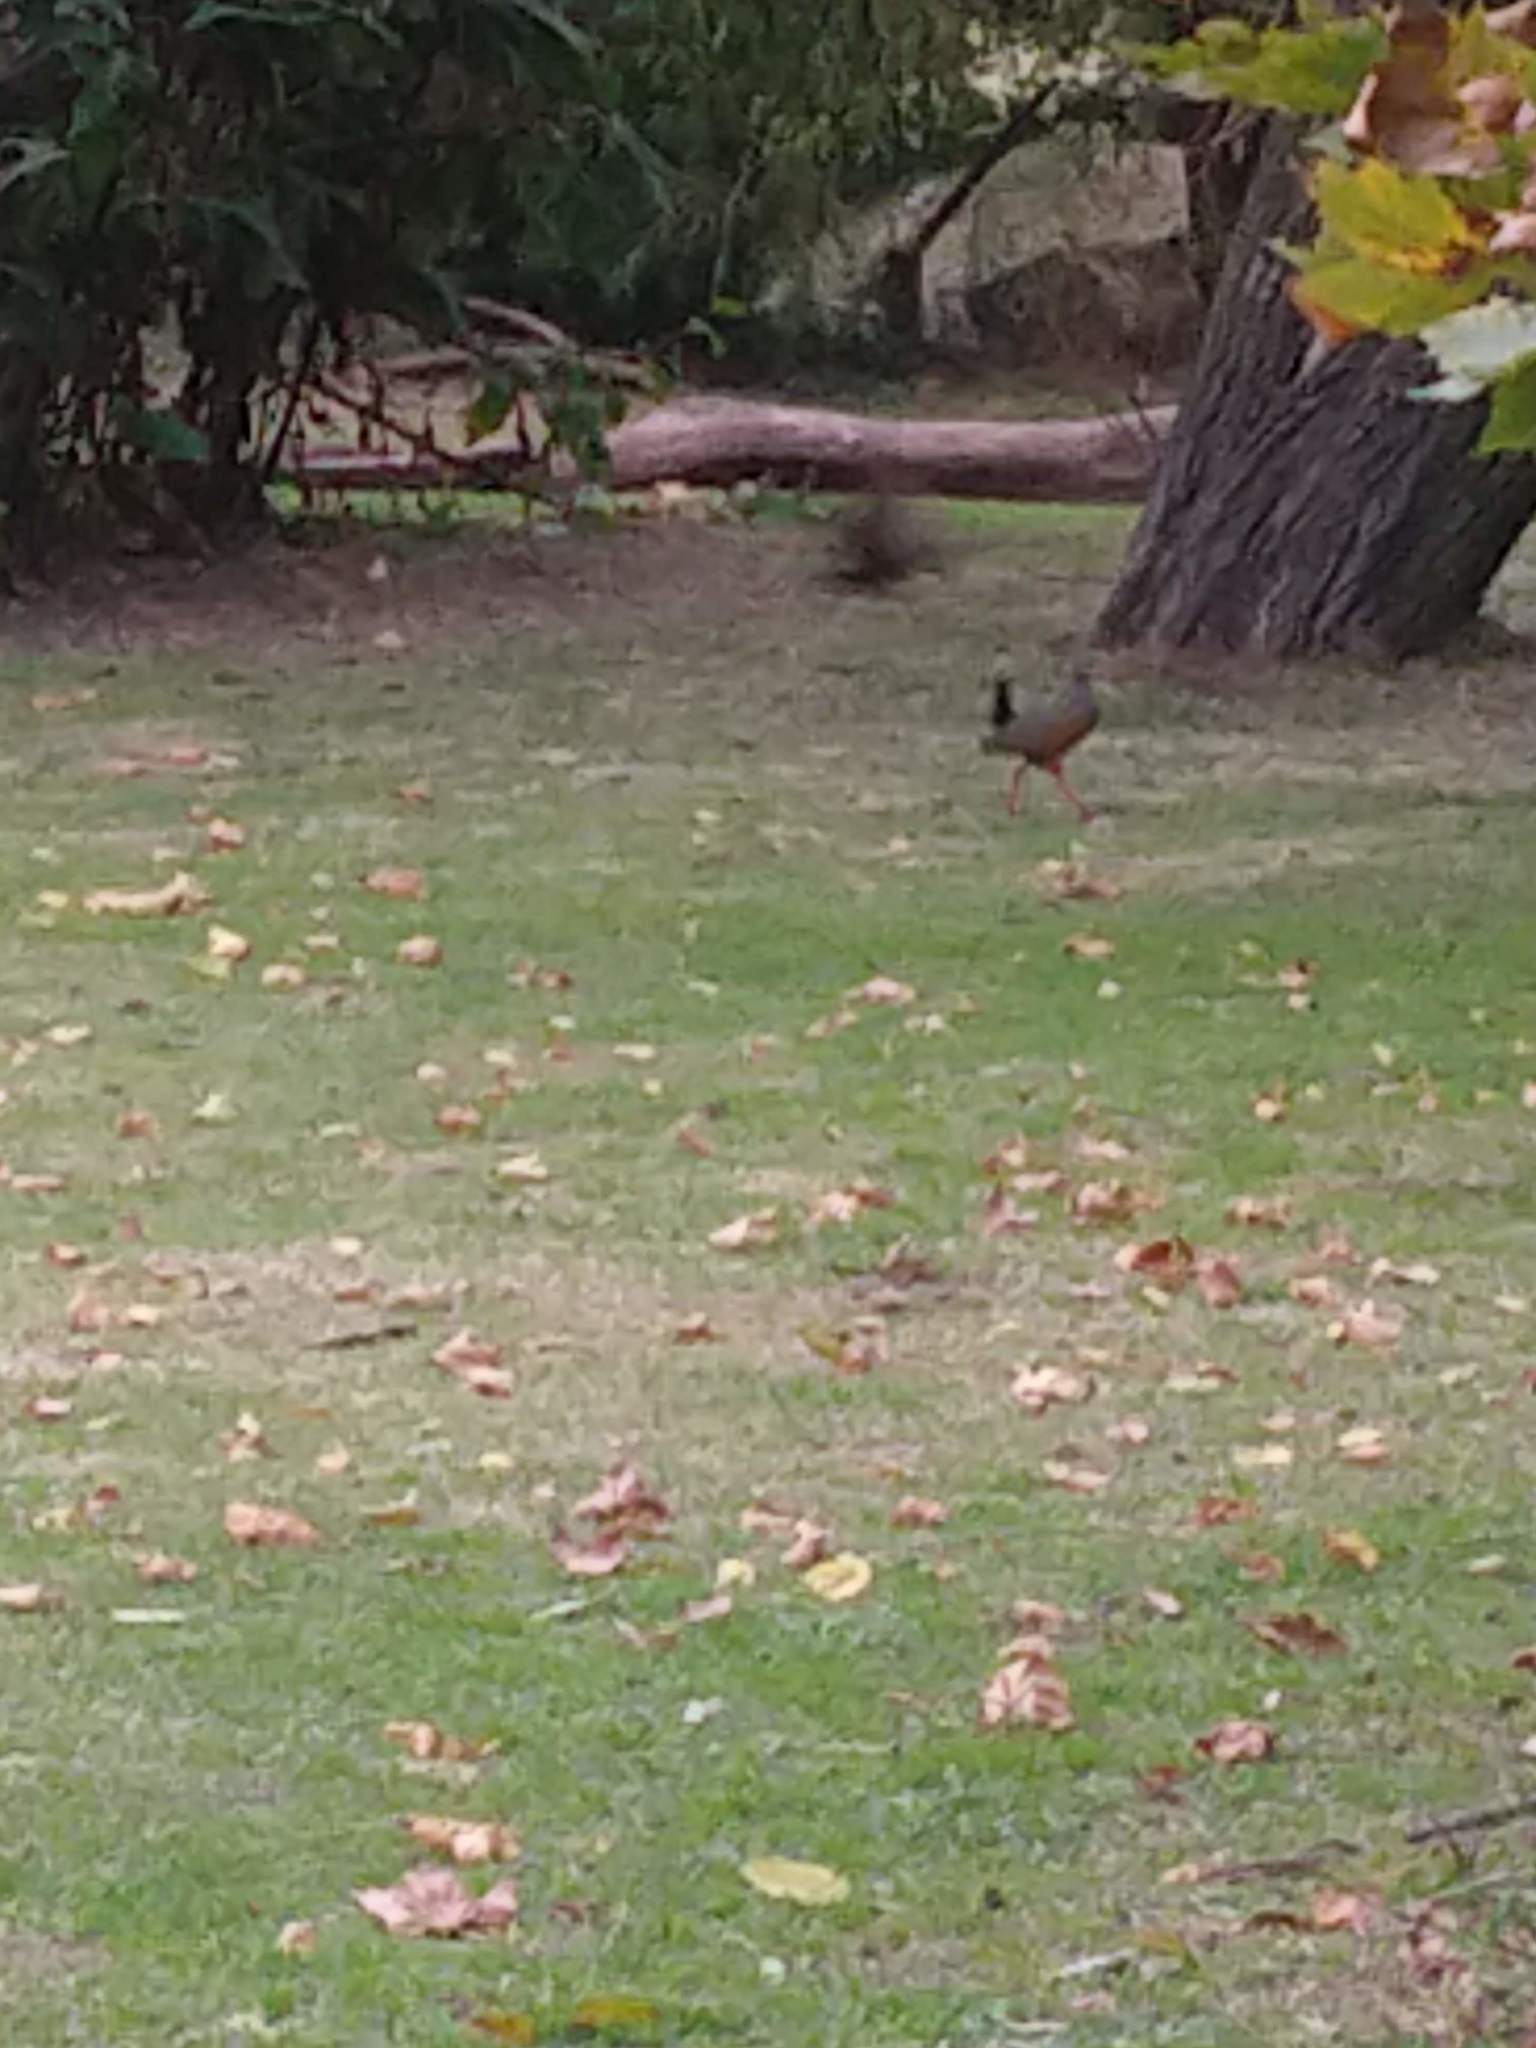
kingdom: Animalia
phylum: Chordata
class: Aves
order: Gruiformes
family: Rallidae
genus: Aramides
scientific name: Aramides cajanea
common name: Gray-necked wood-rail
